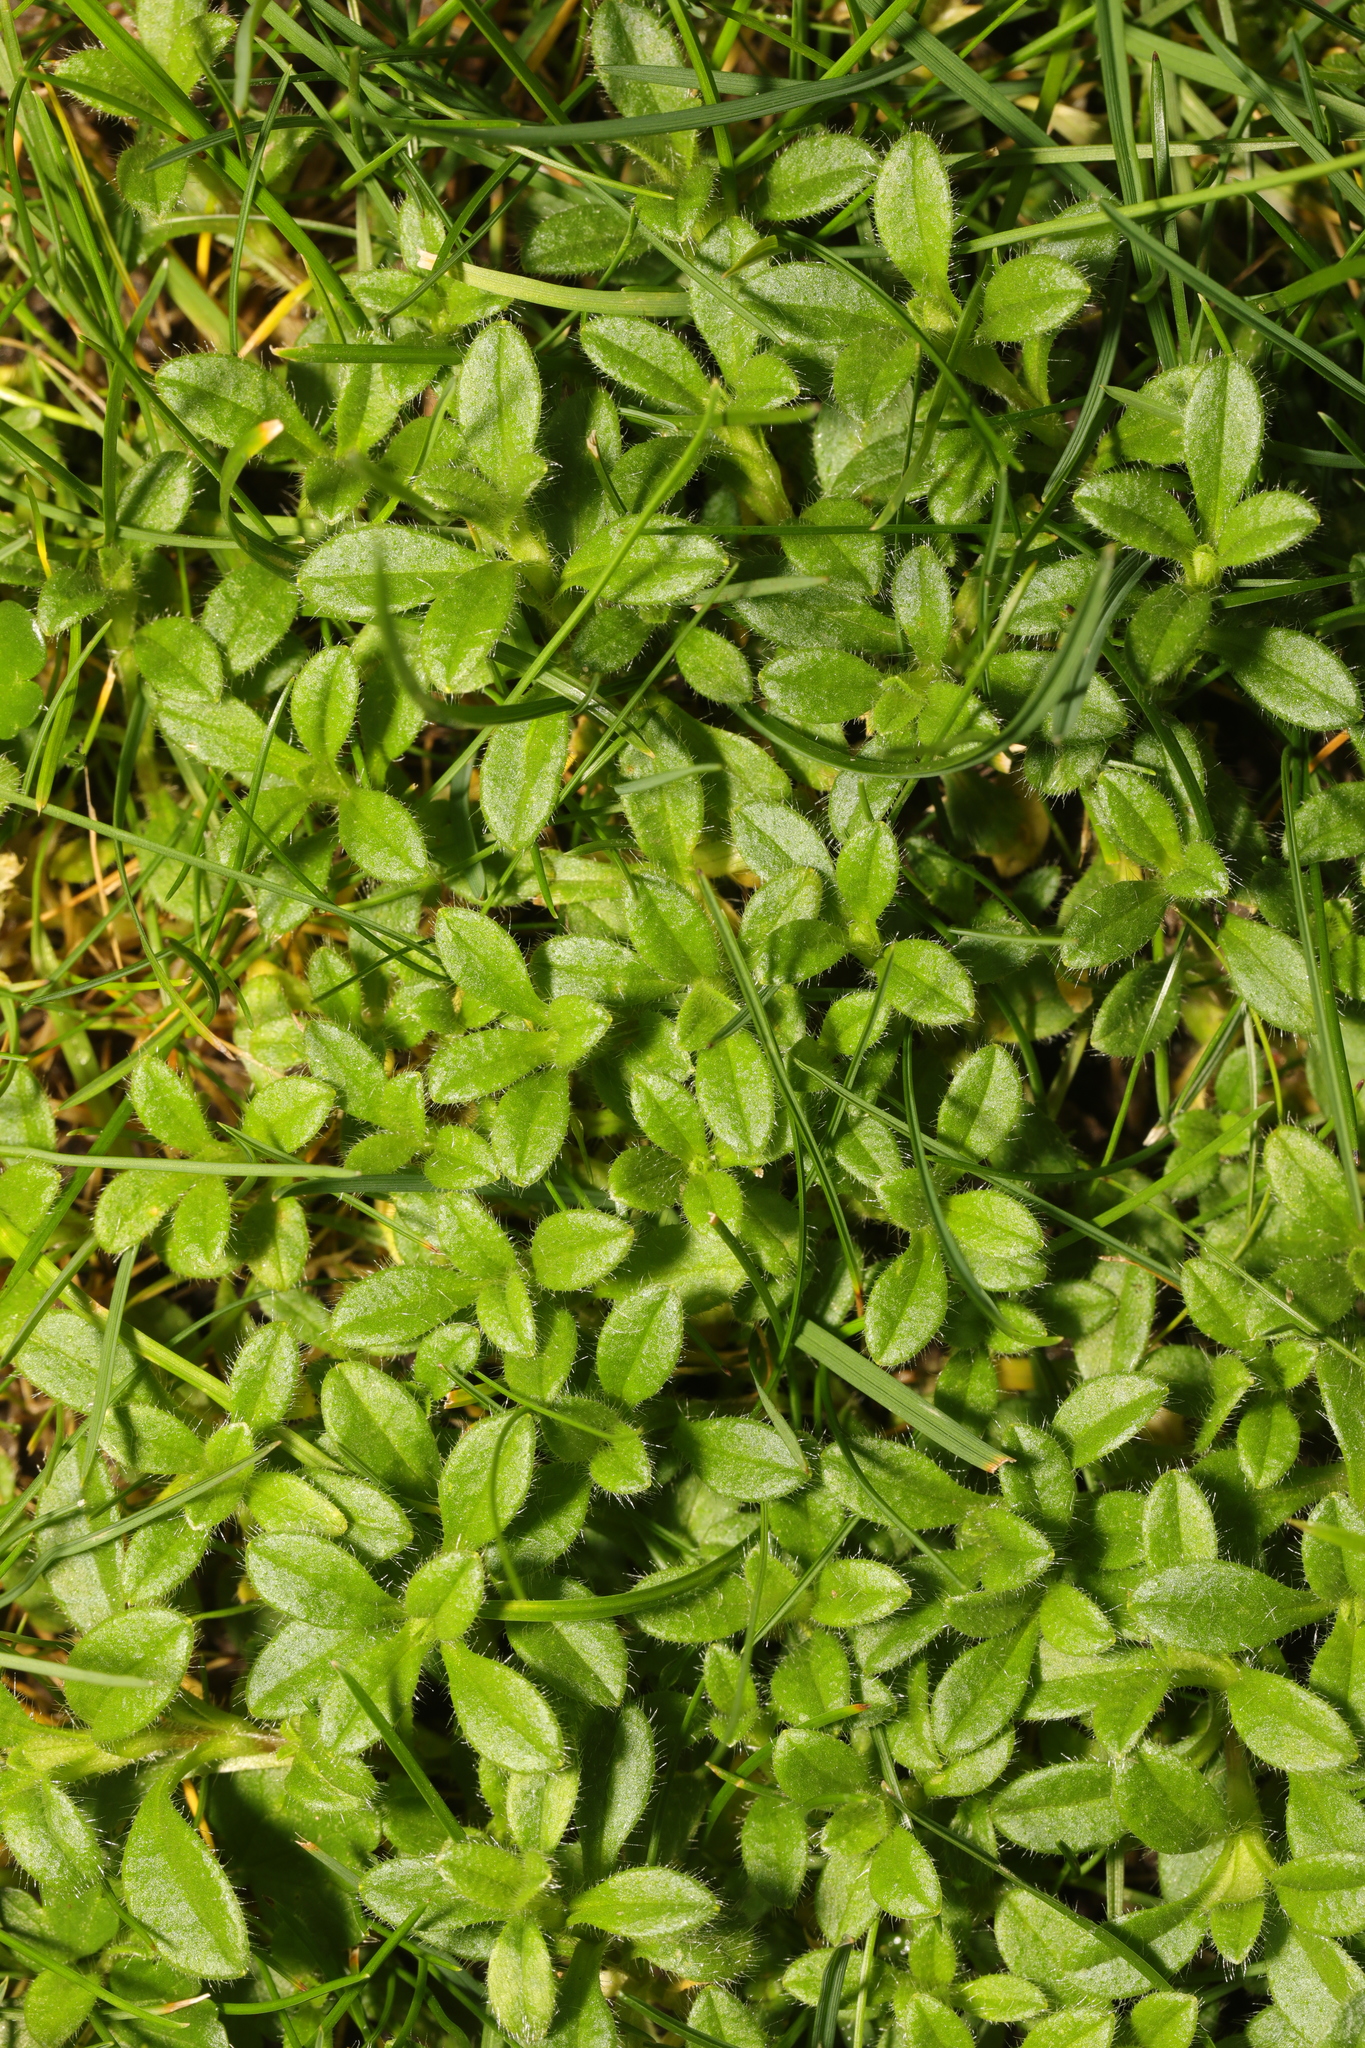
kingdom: Plantae
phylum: Tracheophyta
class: Magnoliopsida
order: Caryophyllales
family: Caryophyllaceae
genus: Cerastium
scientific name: Cerastium fontanum
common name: Common mouse-ear
